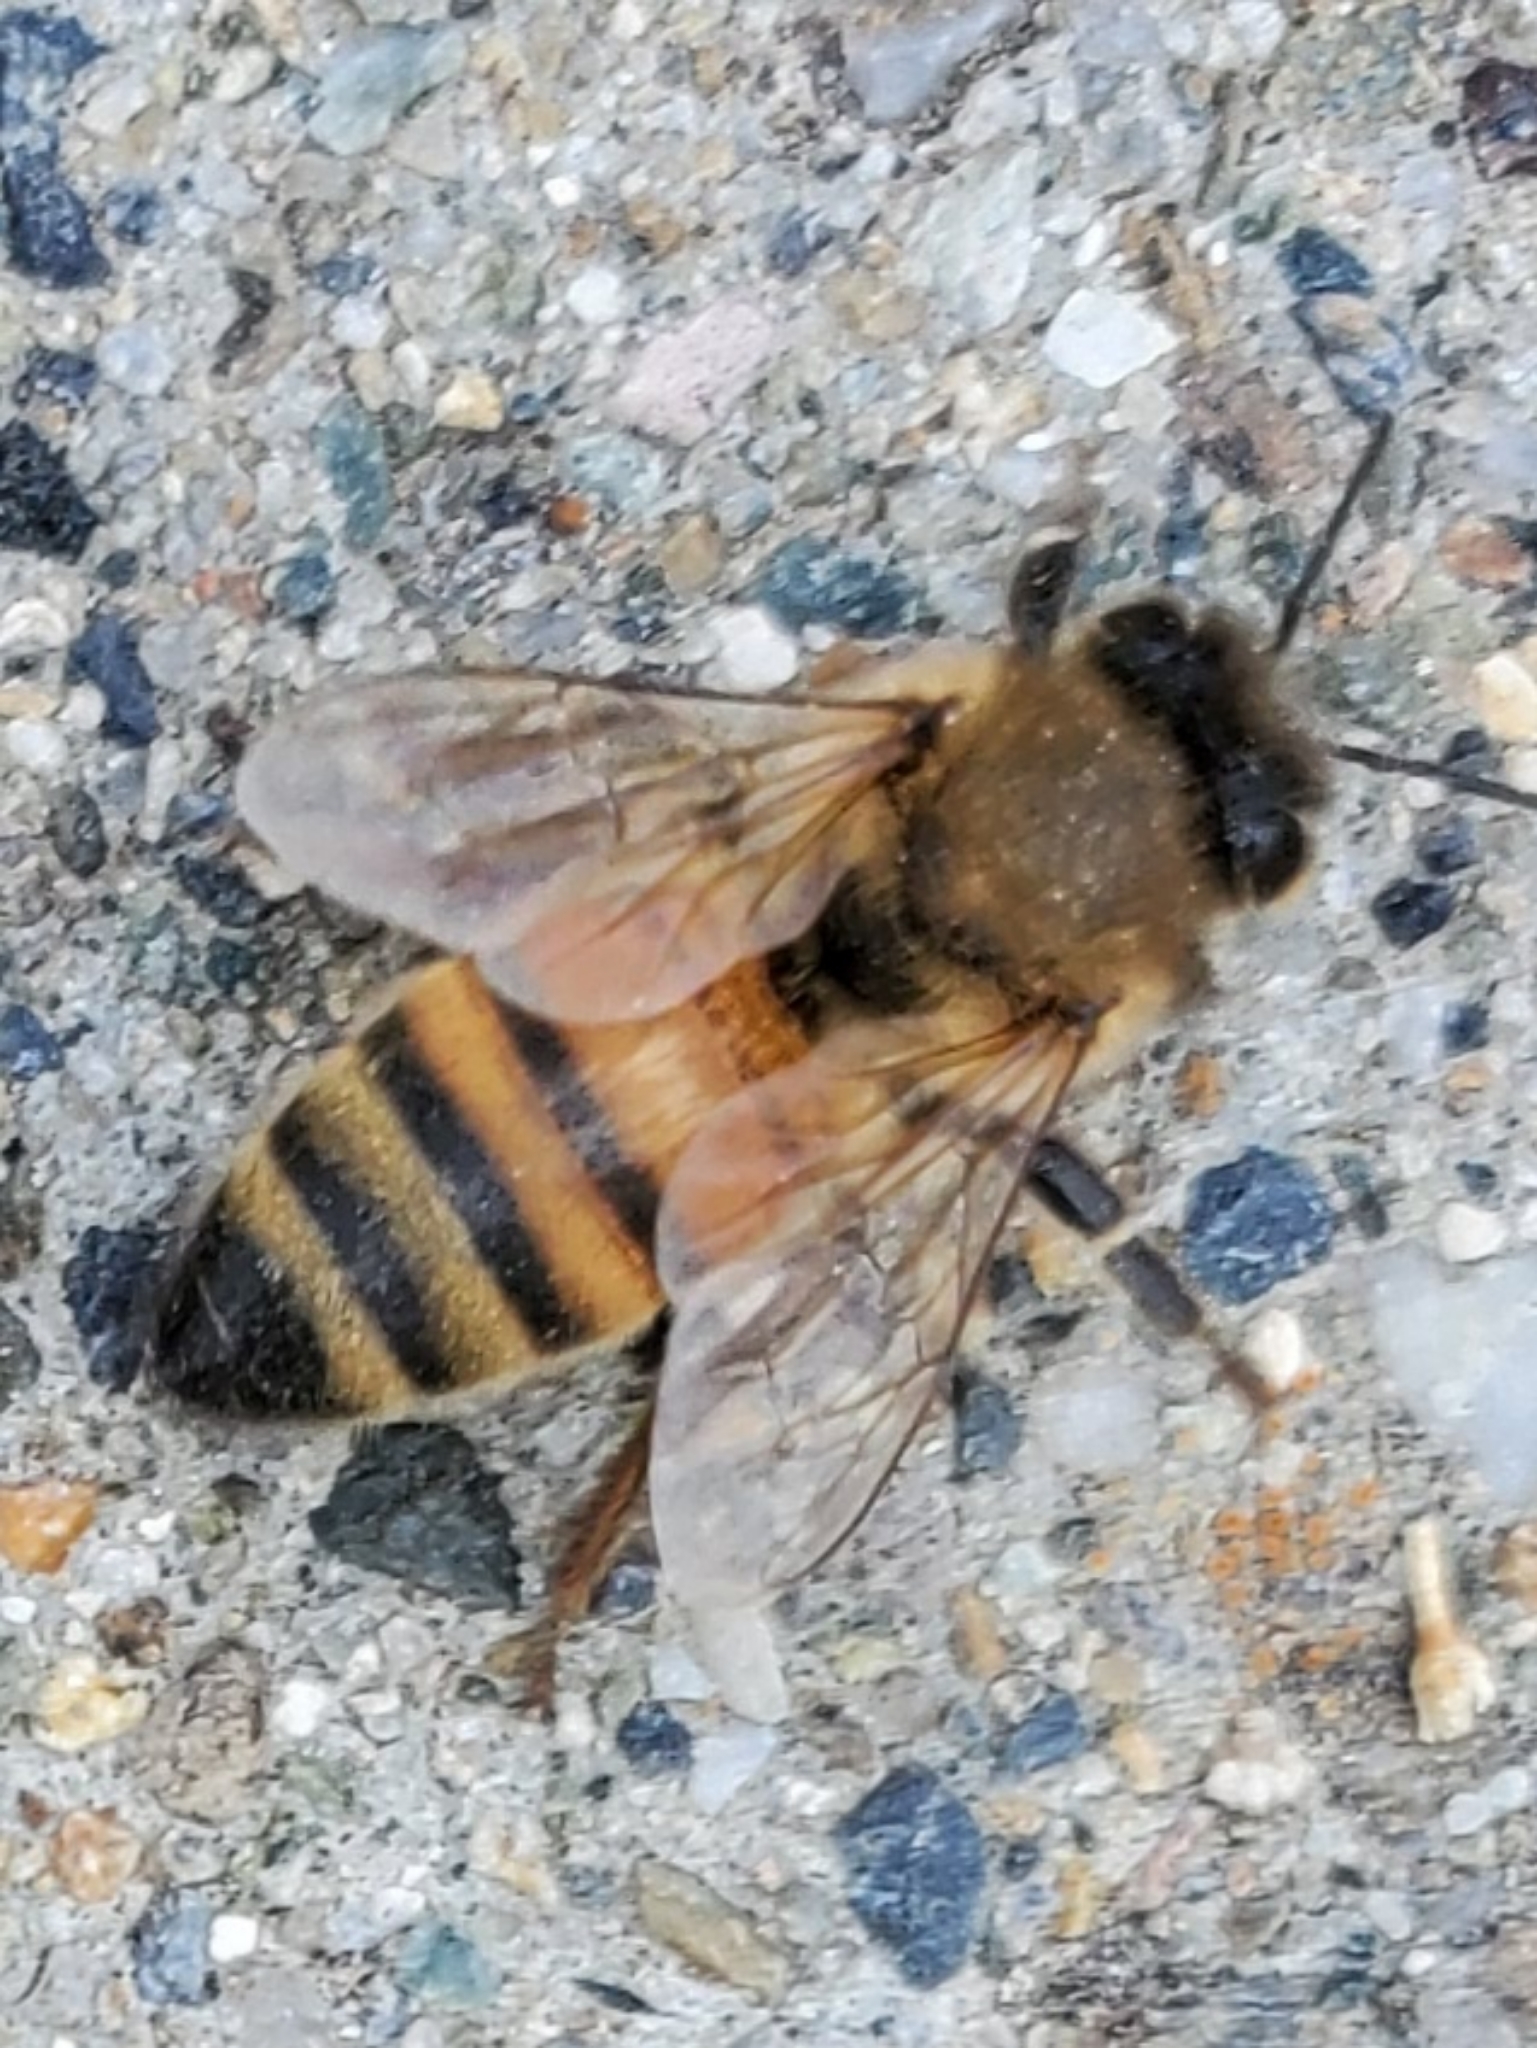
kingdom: Animalia
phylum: Arthropoda
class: Insecta
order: Hymenoptera
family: Apidae
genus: Apis
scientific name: Apis mellifera
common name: Honey bee
